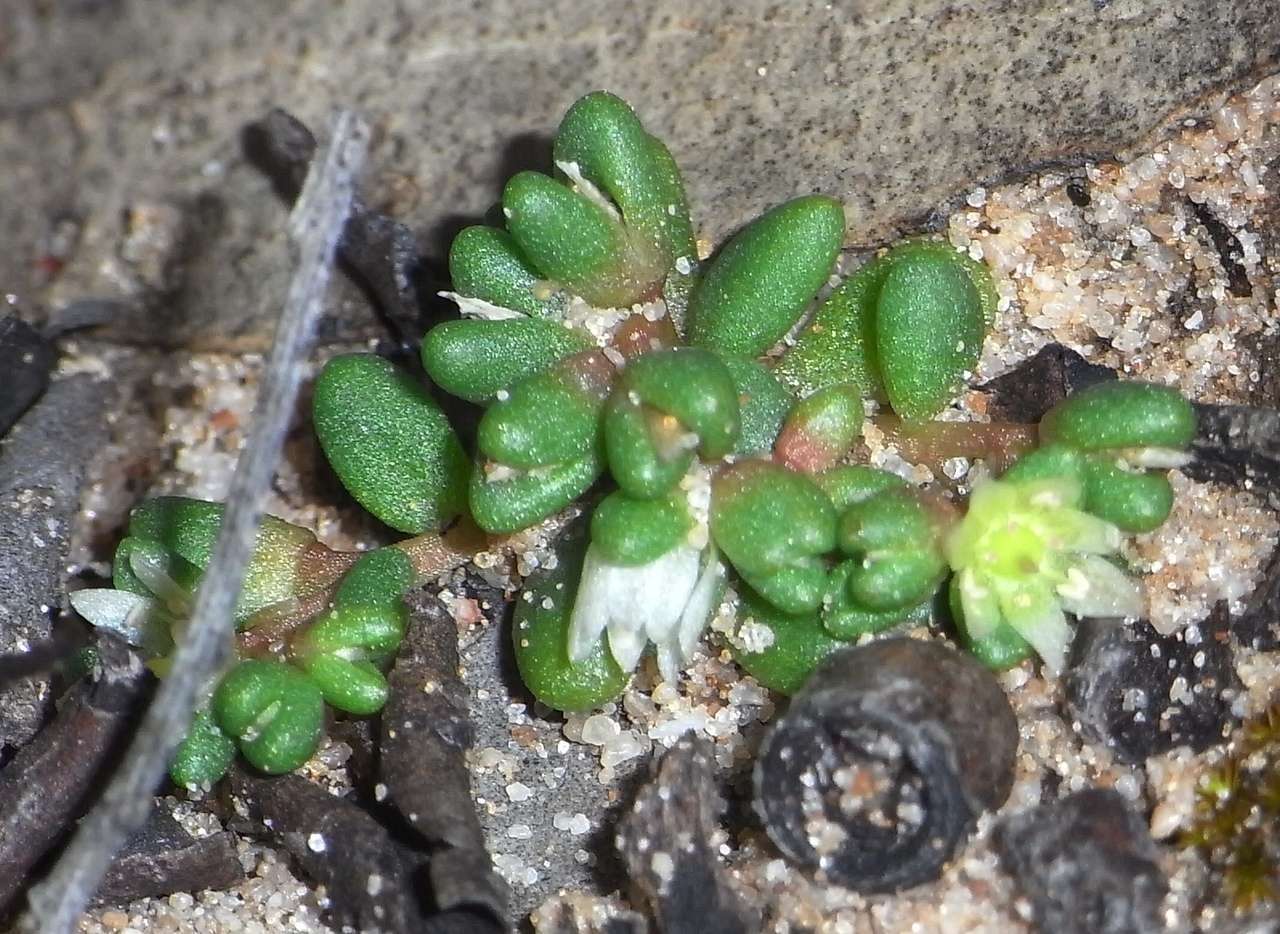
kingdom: Plantae
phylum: Tracheophyta
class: Magnoliopsida
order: Caryophyllales
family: Montiaceae
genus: Rumicastrum
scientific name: Rumicastrum granuliferum
